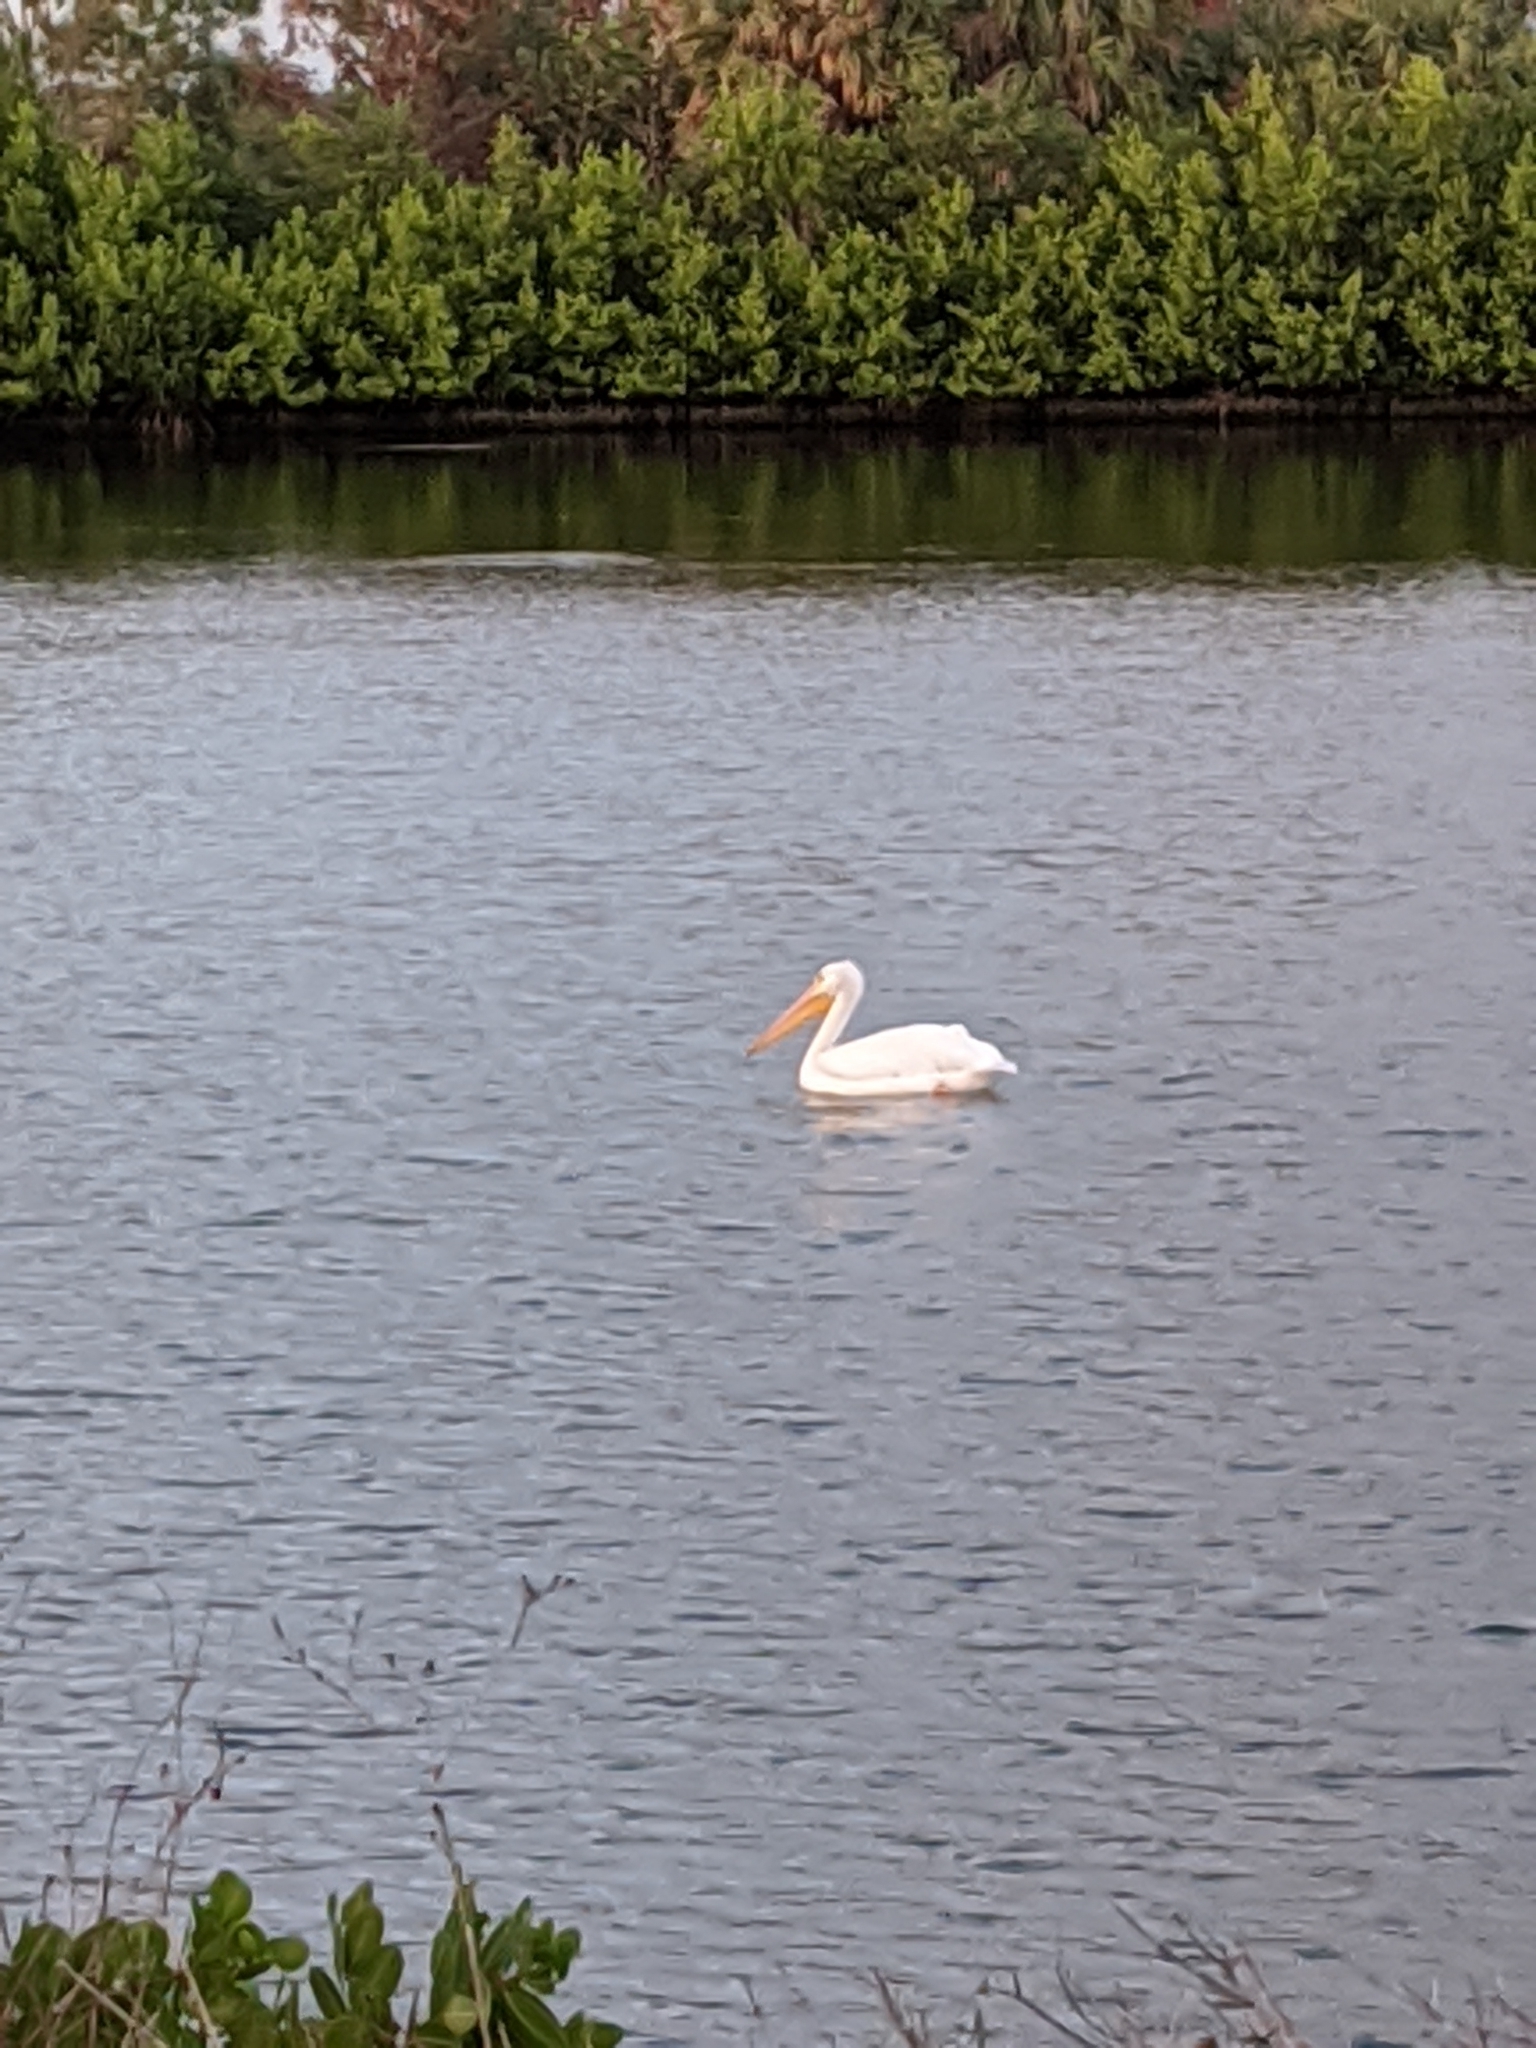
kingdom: Animalia
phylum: Chordata
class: Aves
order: Pelecaniformes
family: Pelecanidae
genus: Pelecanus
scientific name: Pelecanus erythrorhynchos
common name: American white pelican
